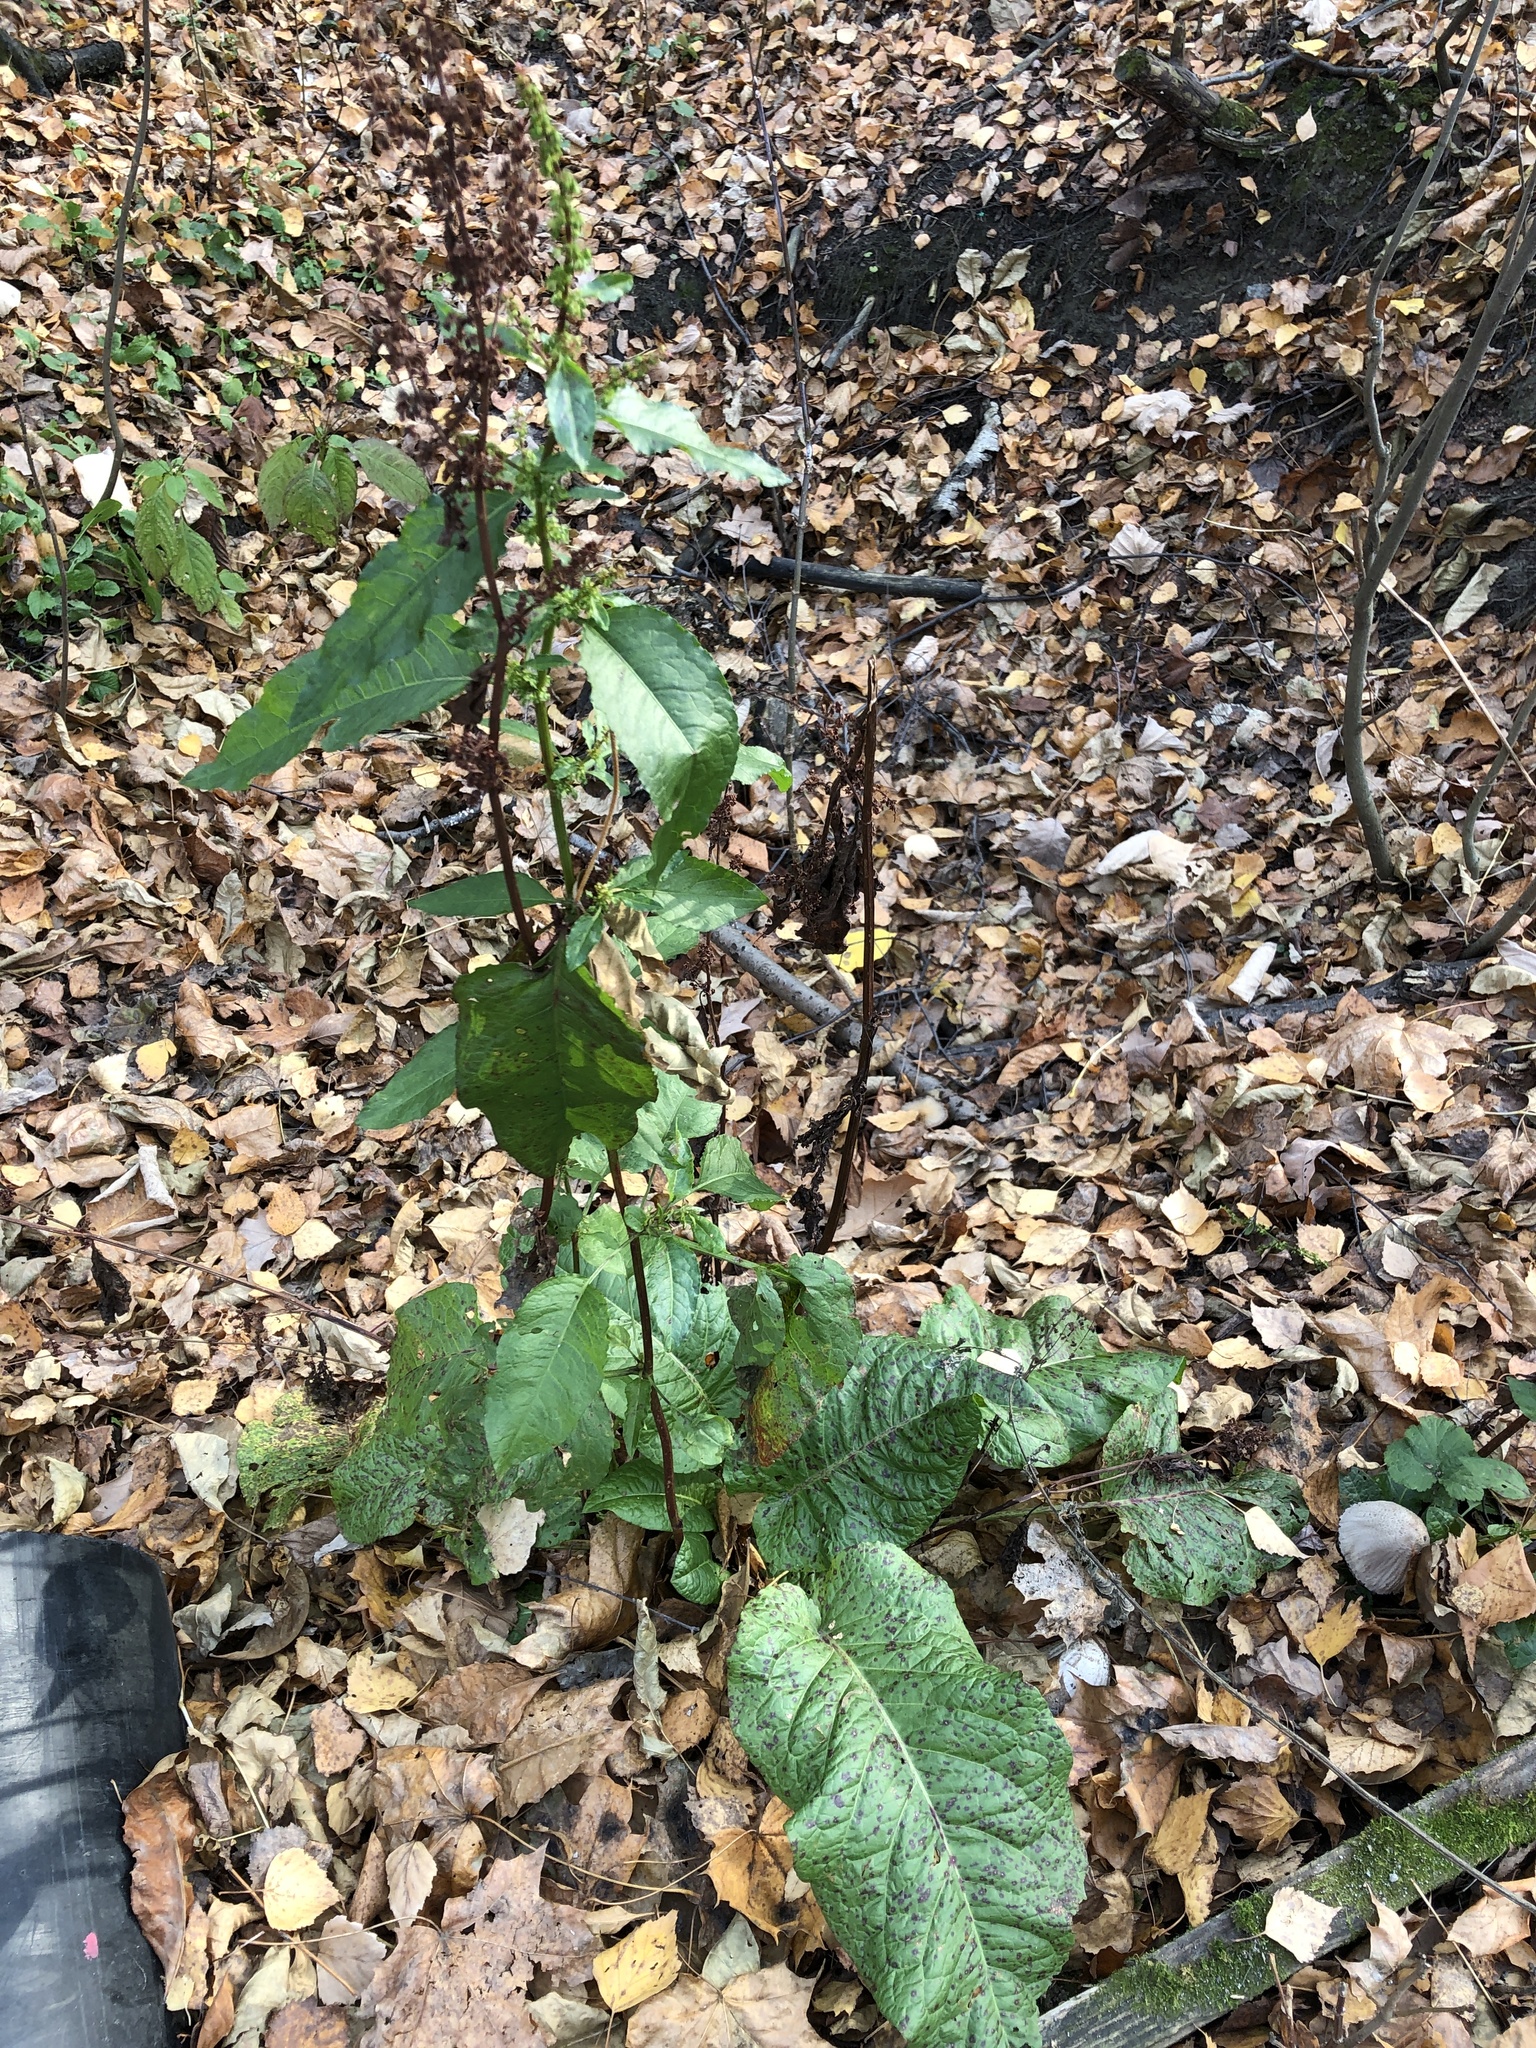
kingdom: Plantae
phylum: Tracheophyta
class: Magnoliopsida
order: Caryophyllales
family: Polygonaceae
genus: Rumex
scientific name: Rumex obtusifolius
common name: Bitter dock
